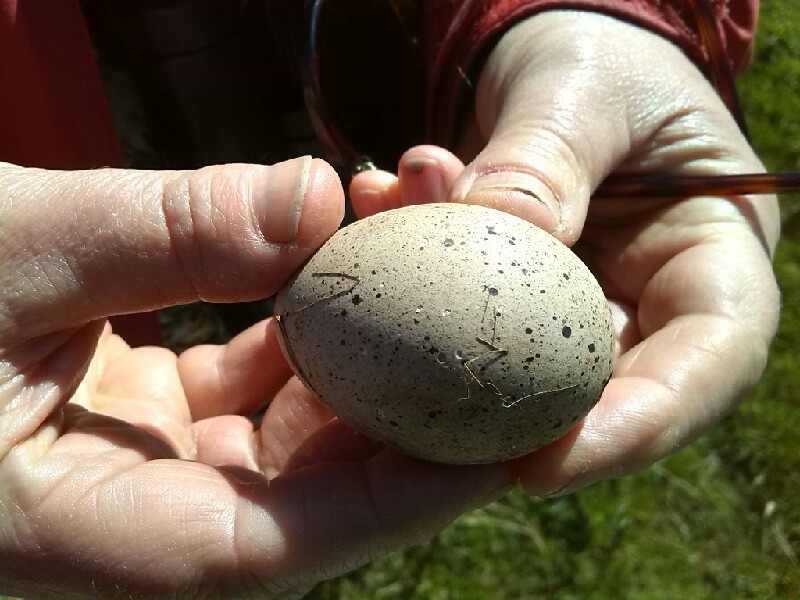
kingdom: Animalia
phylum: Chordata
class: Aves
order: Gruiformes
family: Rallidae
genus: Fulica
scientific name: Fulica atra
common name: Eurasian coot
